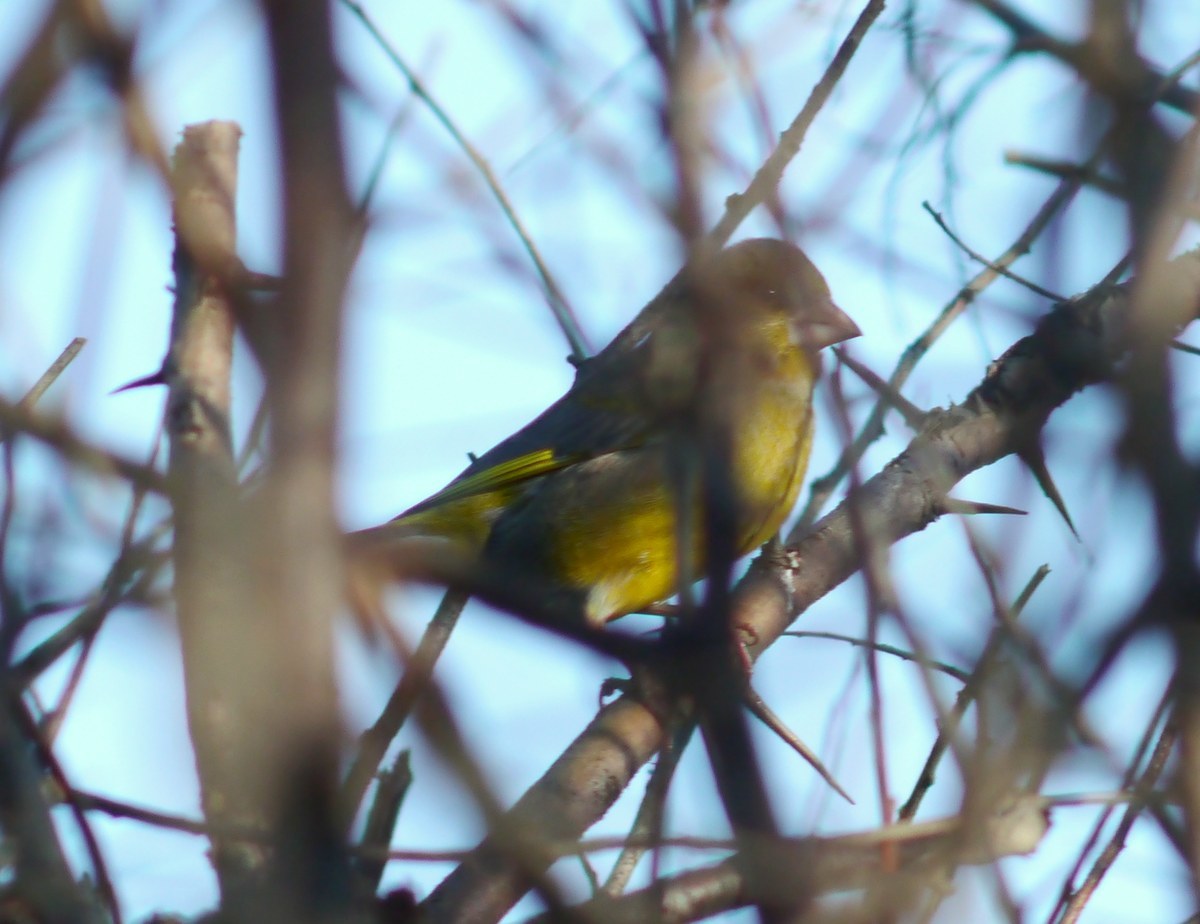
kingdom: Plantae
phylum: Tracheophyta
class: Liliopsida
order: Poales
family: Poaceae
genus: Chloris
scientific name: Chloris chloris
